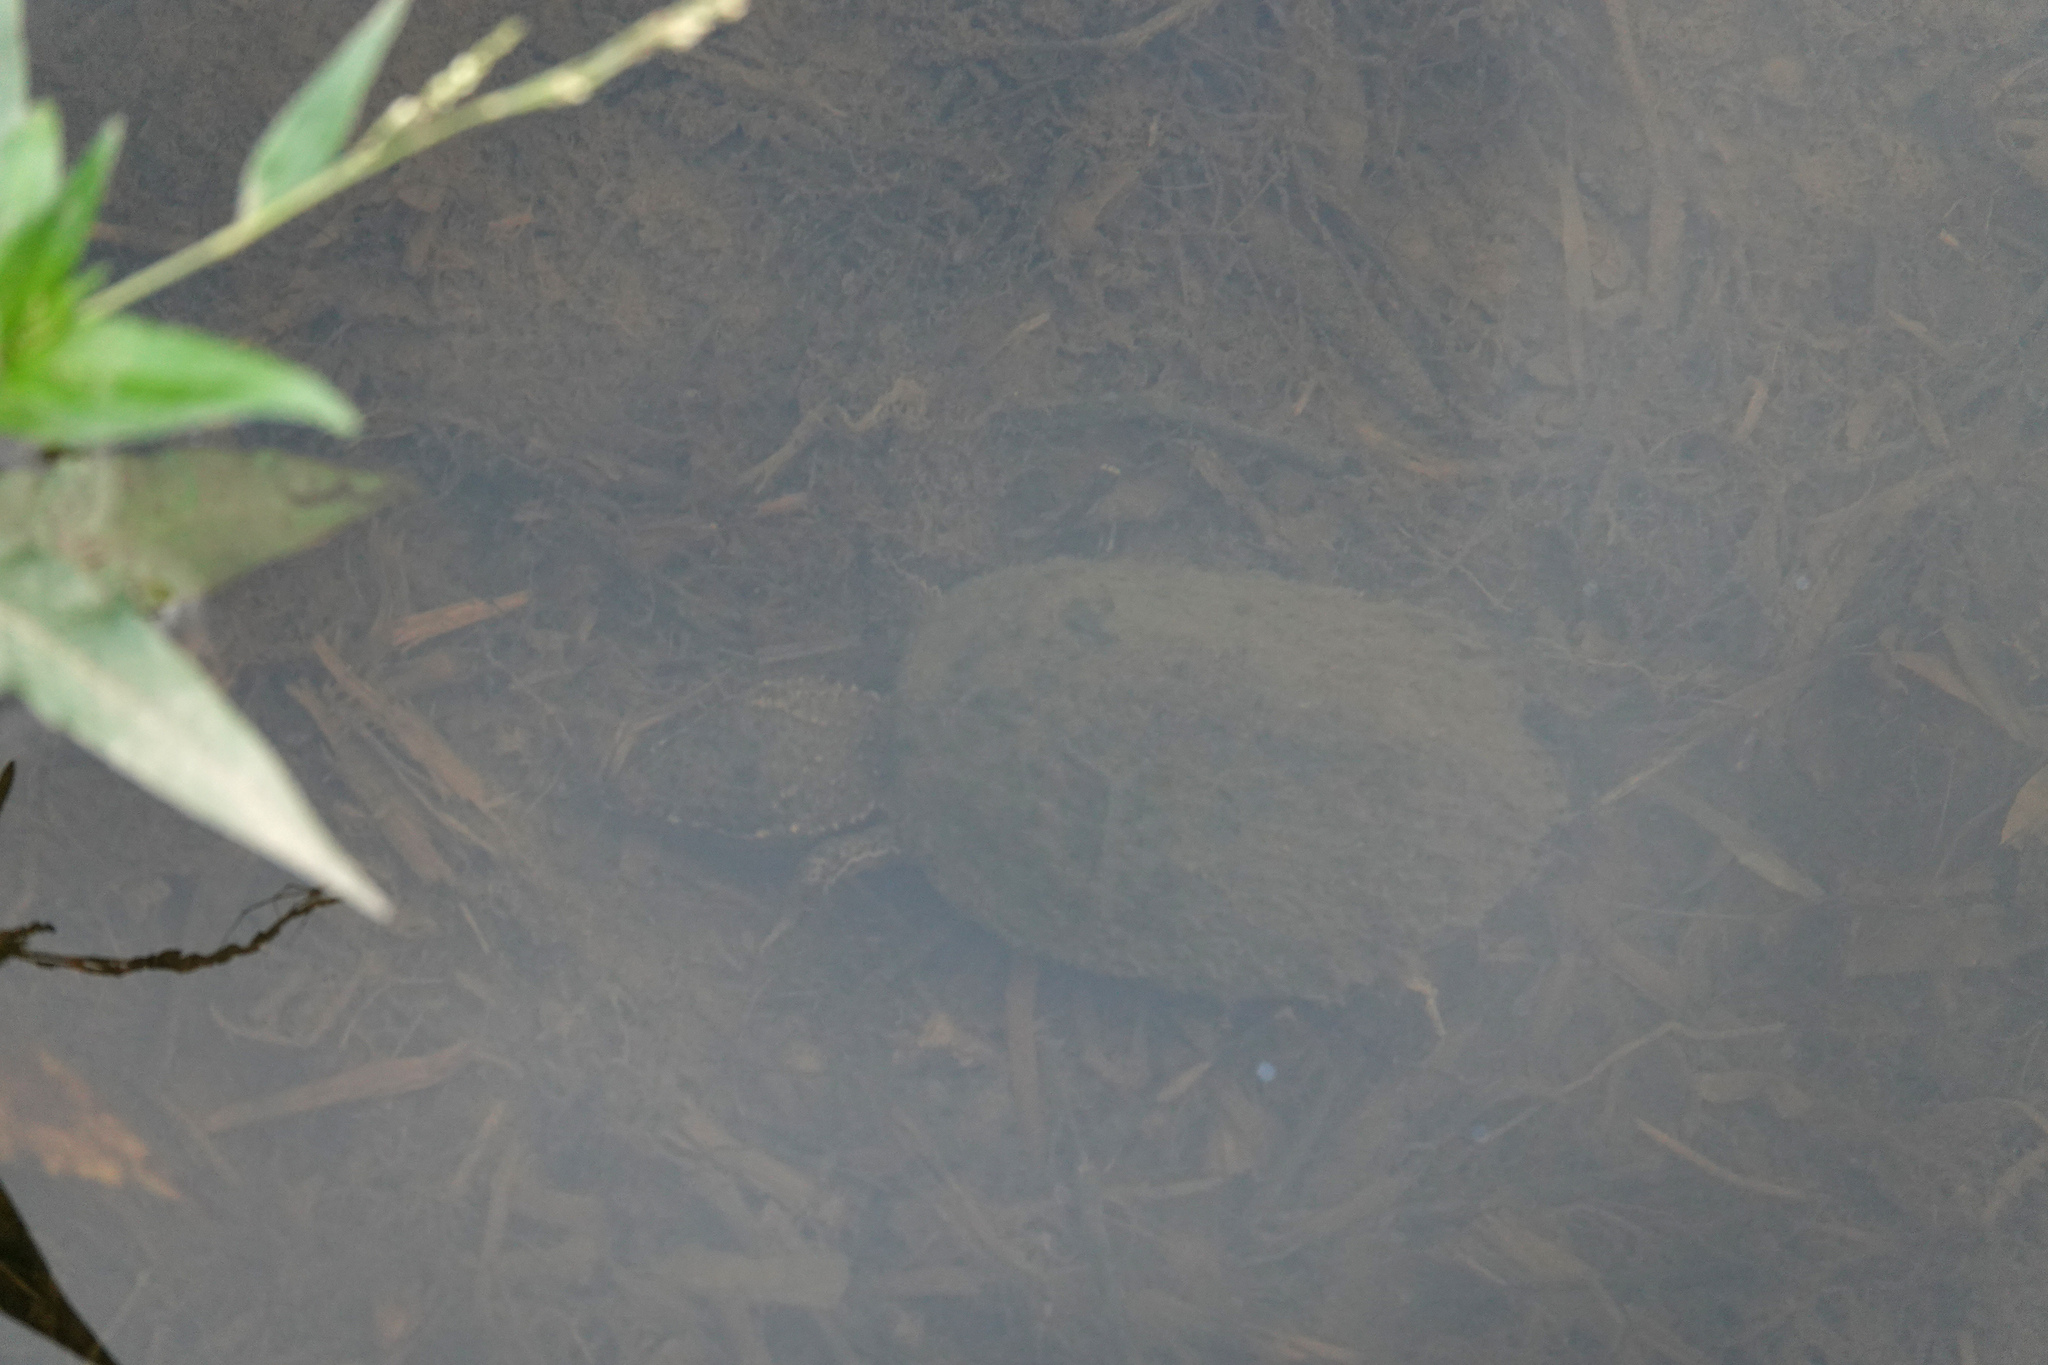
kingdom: Animalia
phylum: Chordata
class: Testudines
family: Kinosternidae
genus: Sternotherus
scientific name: Sternotherus odoratus
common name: Common musk turtle
